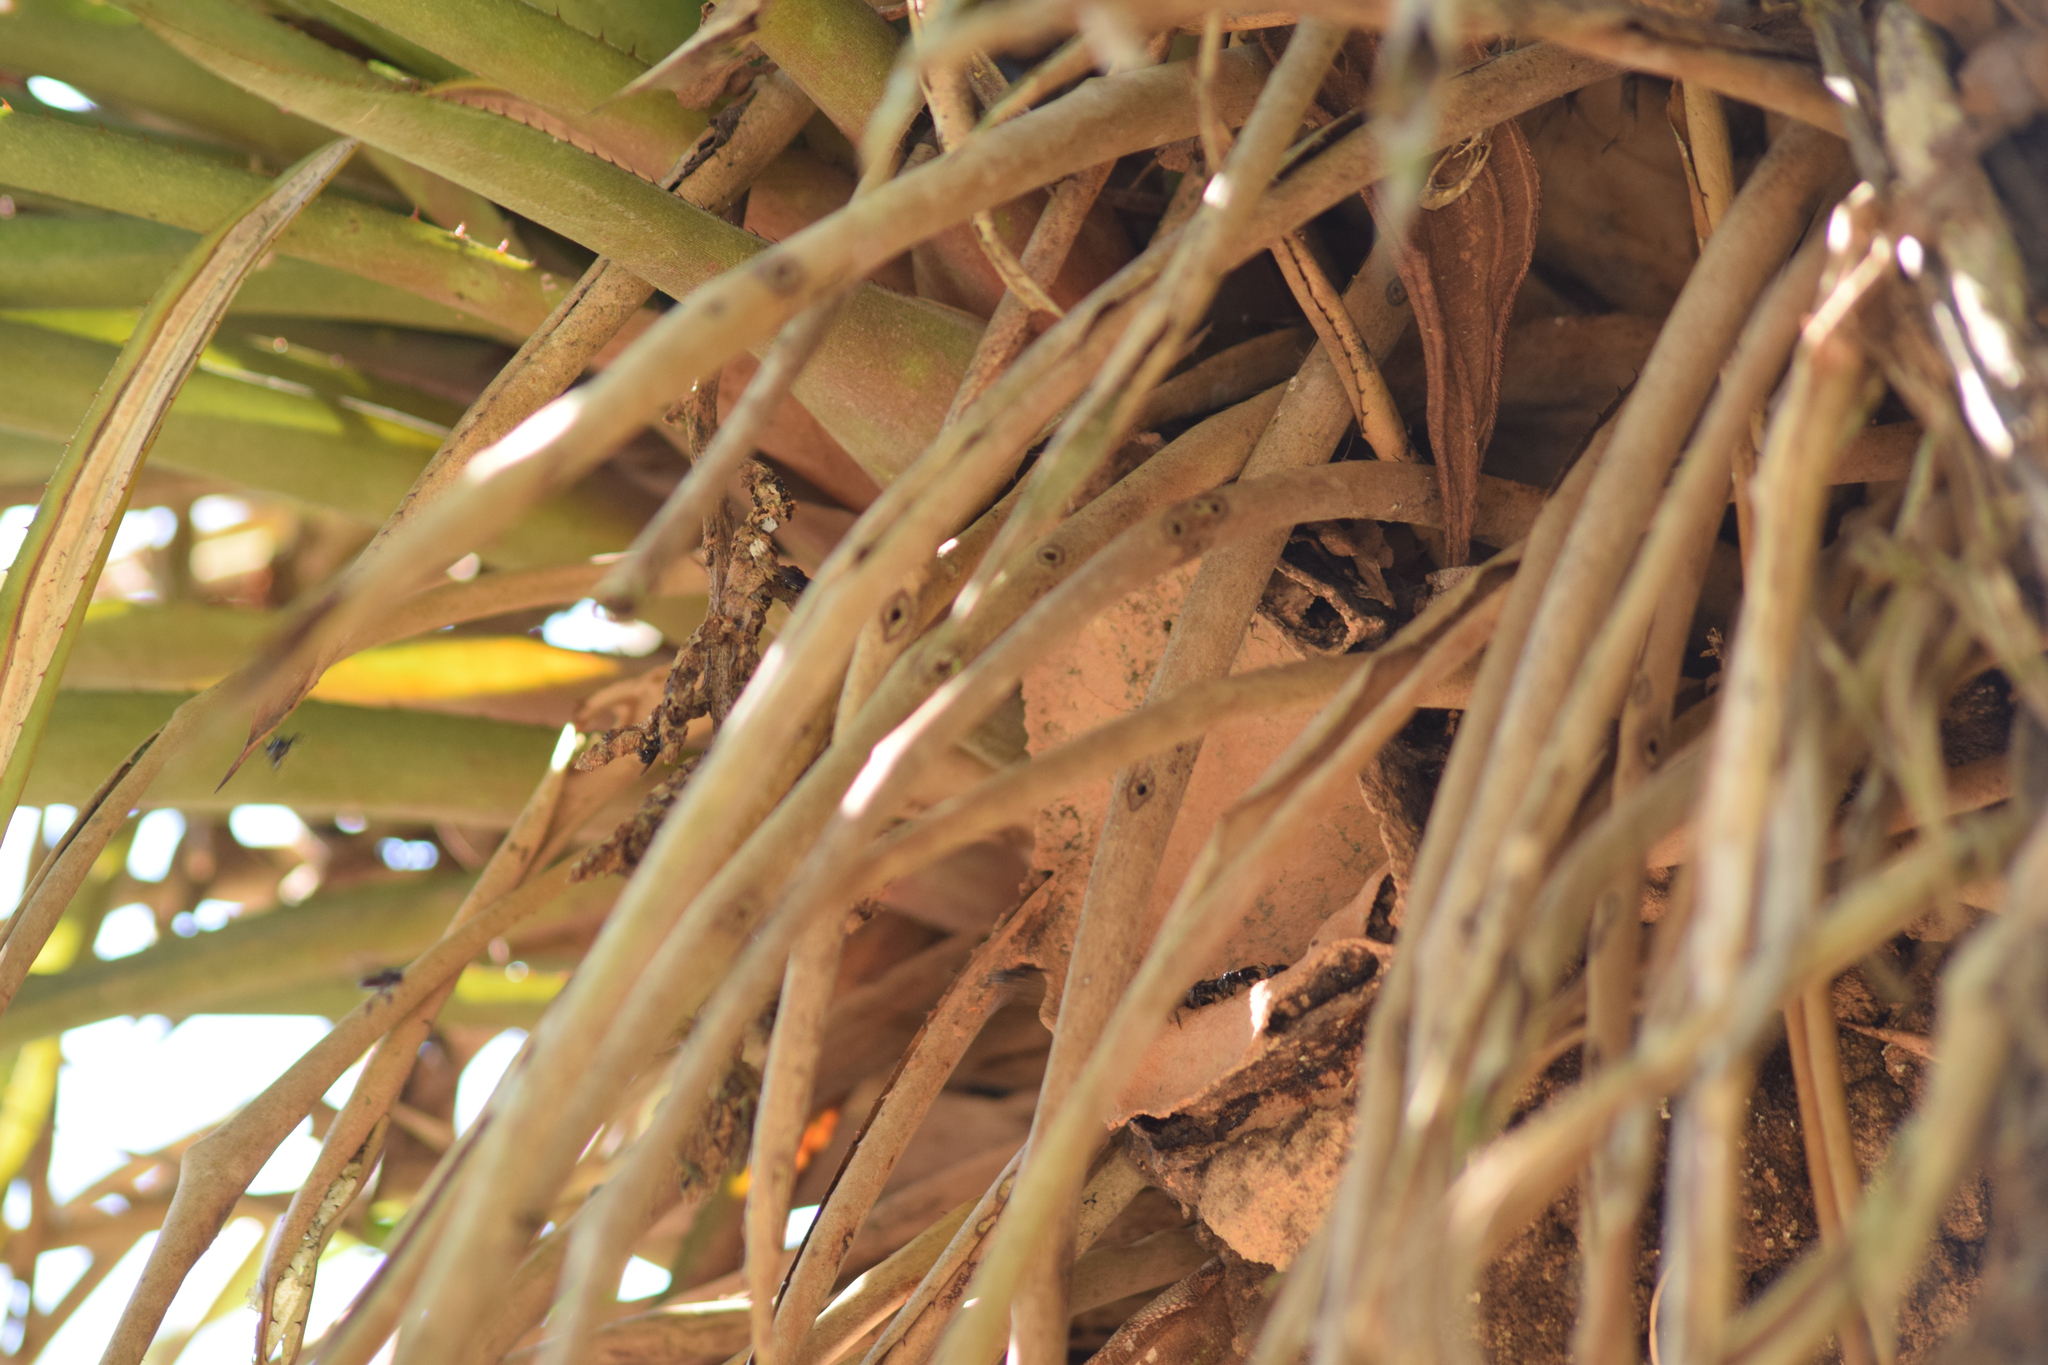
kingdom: Animalia
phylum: Arthropoda
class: Insecta
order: Hymenoptera
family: Apidae
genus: Partamona
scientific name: Partamona helleri
